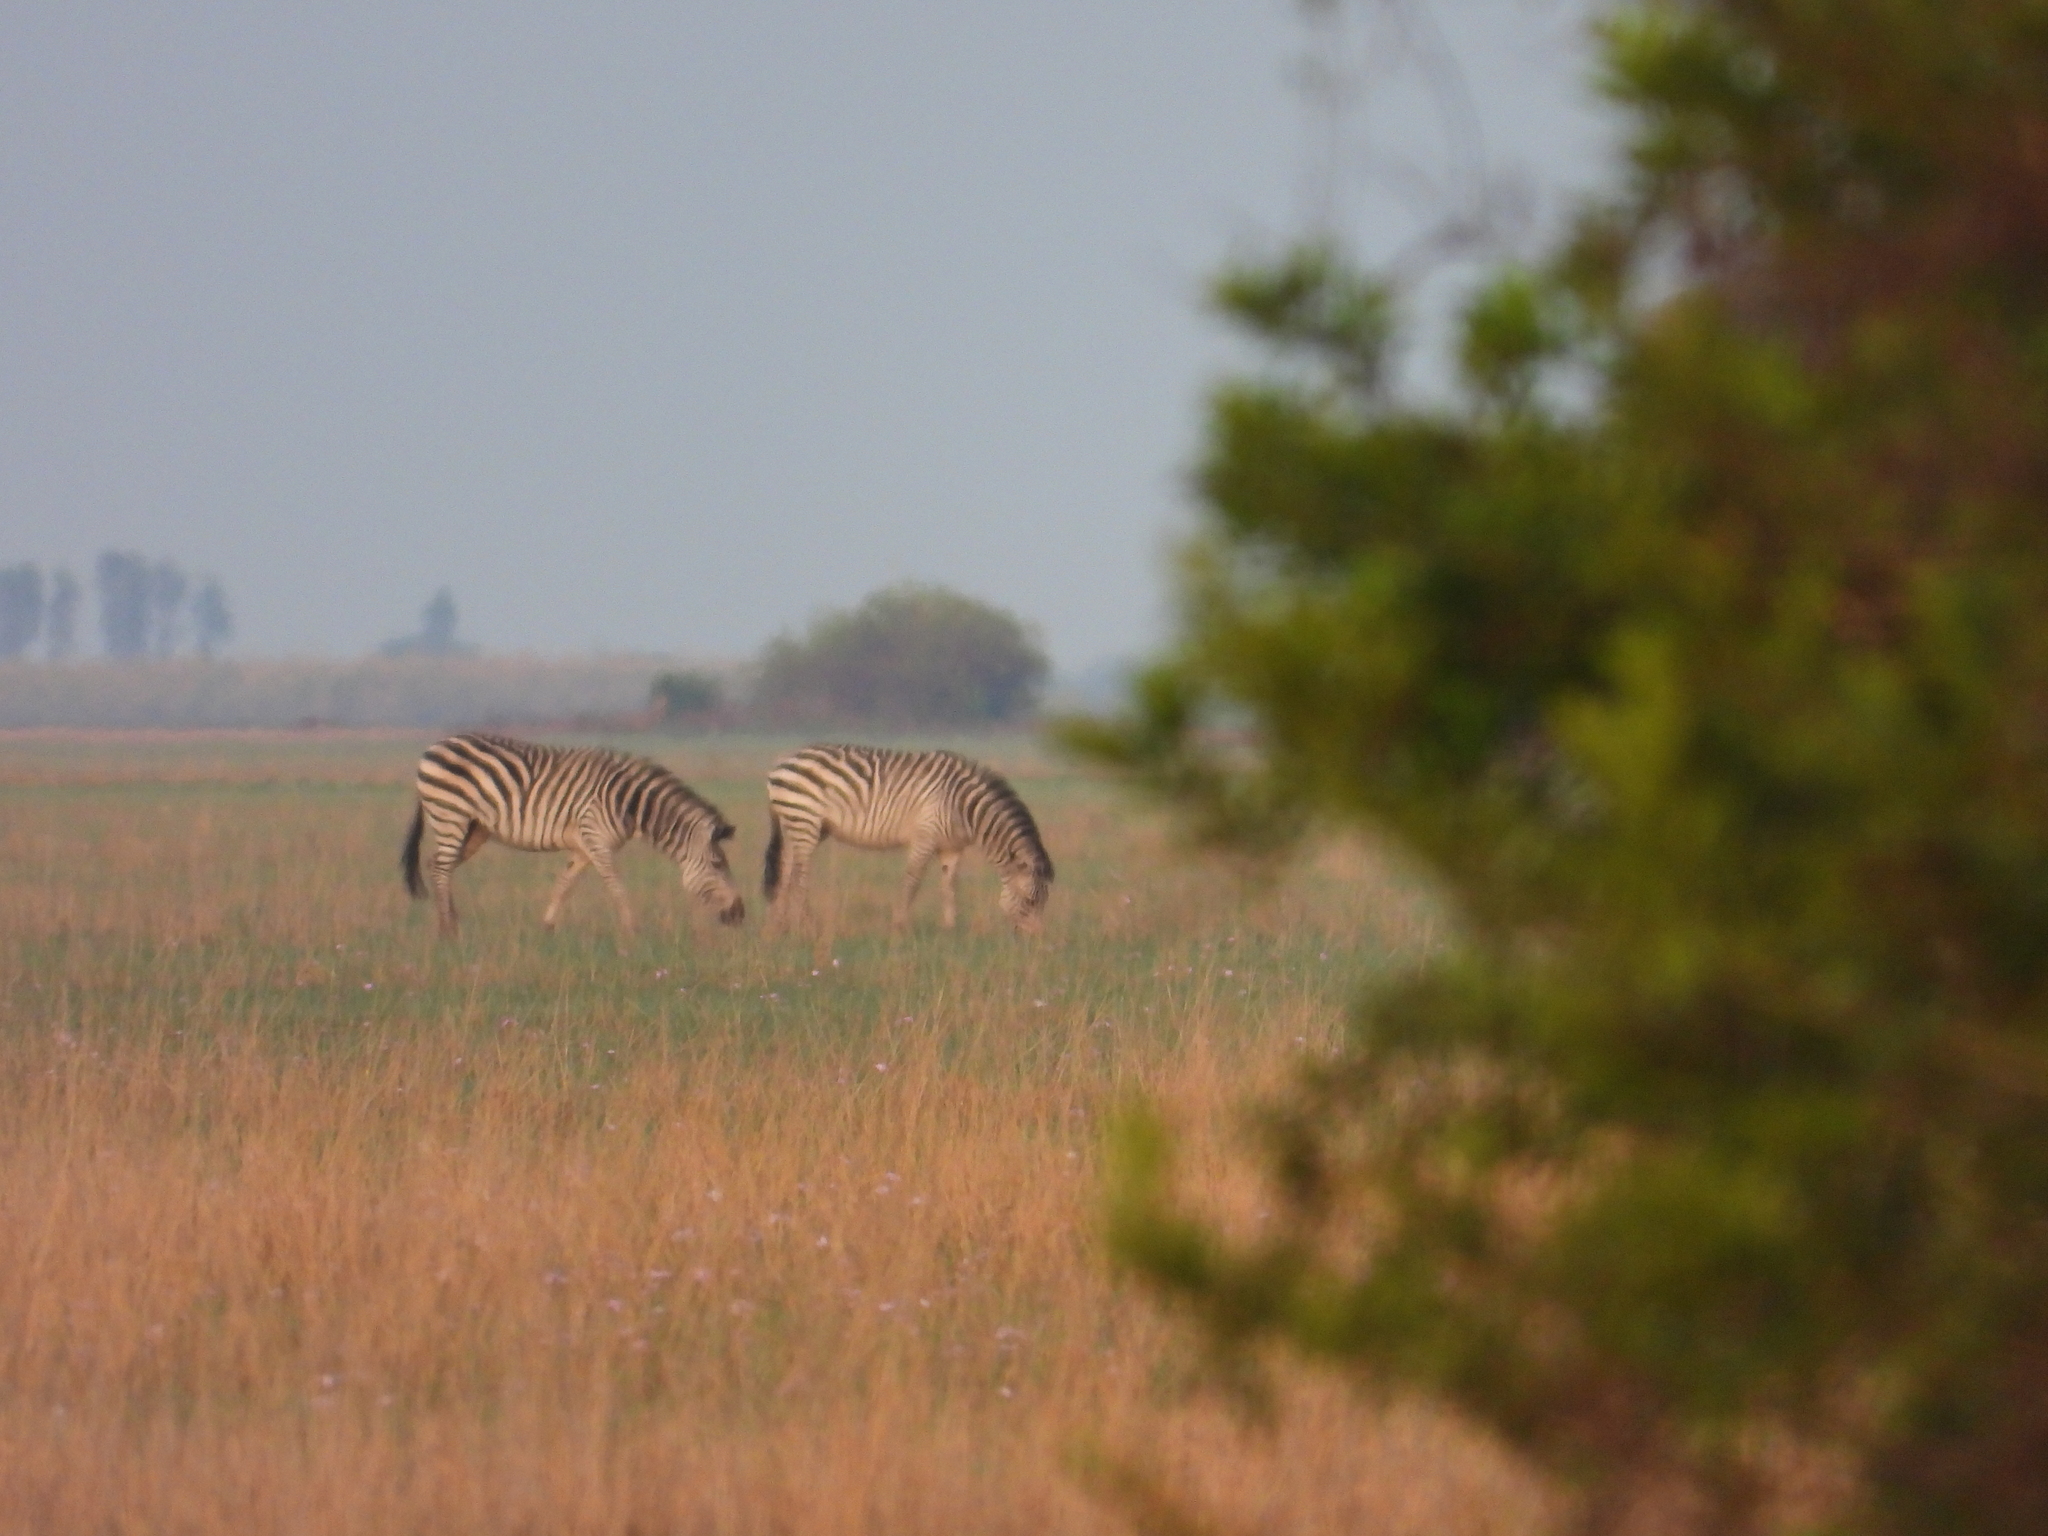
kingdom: Animalia
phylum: Chordata
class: Mammalia
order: Perissodactyla
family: Equidae
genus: Equus
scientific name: Equus quagga
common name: Plains zebra
